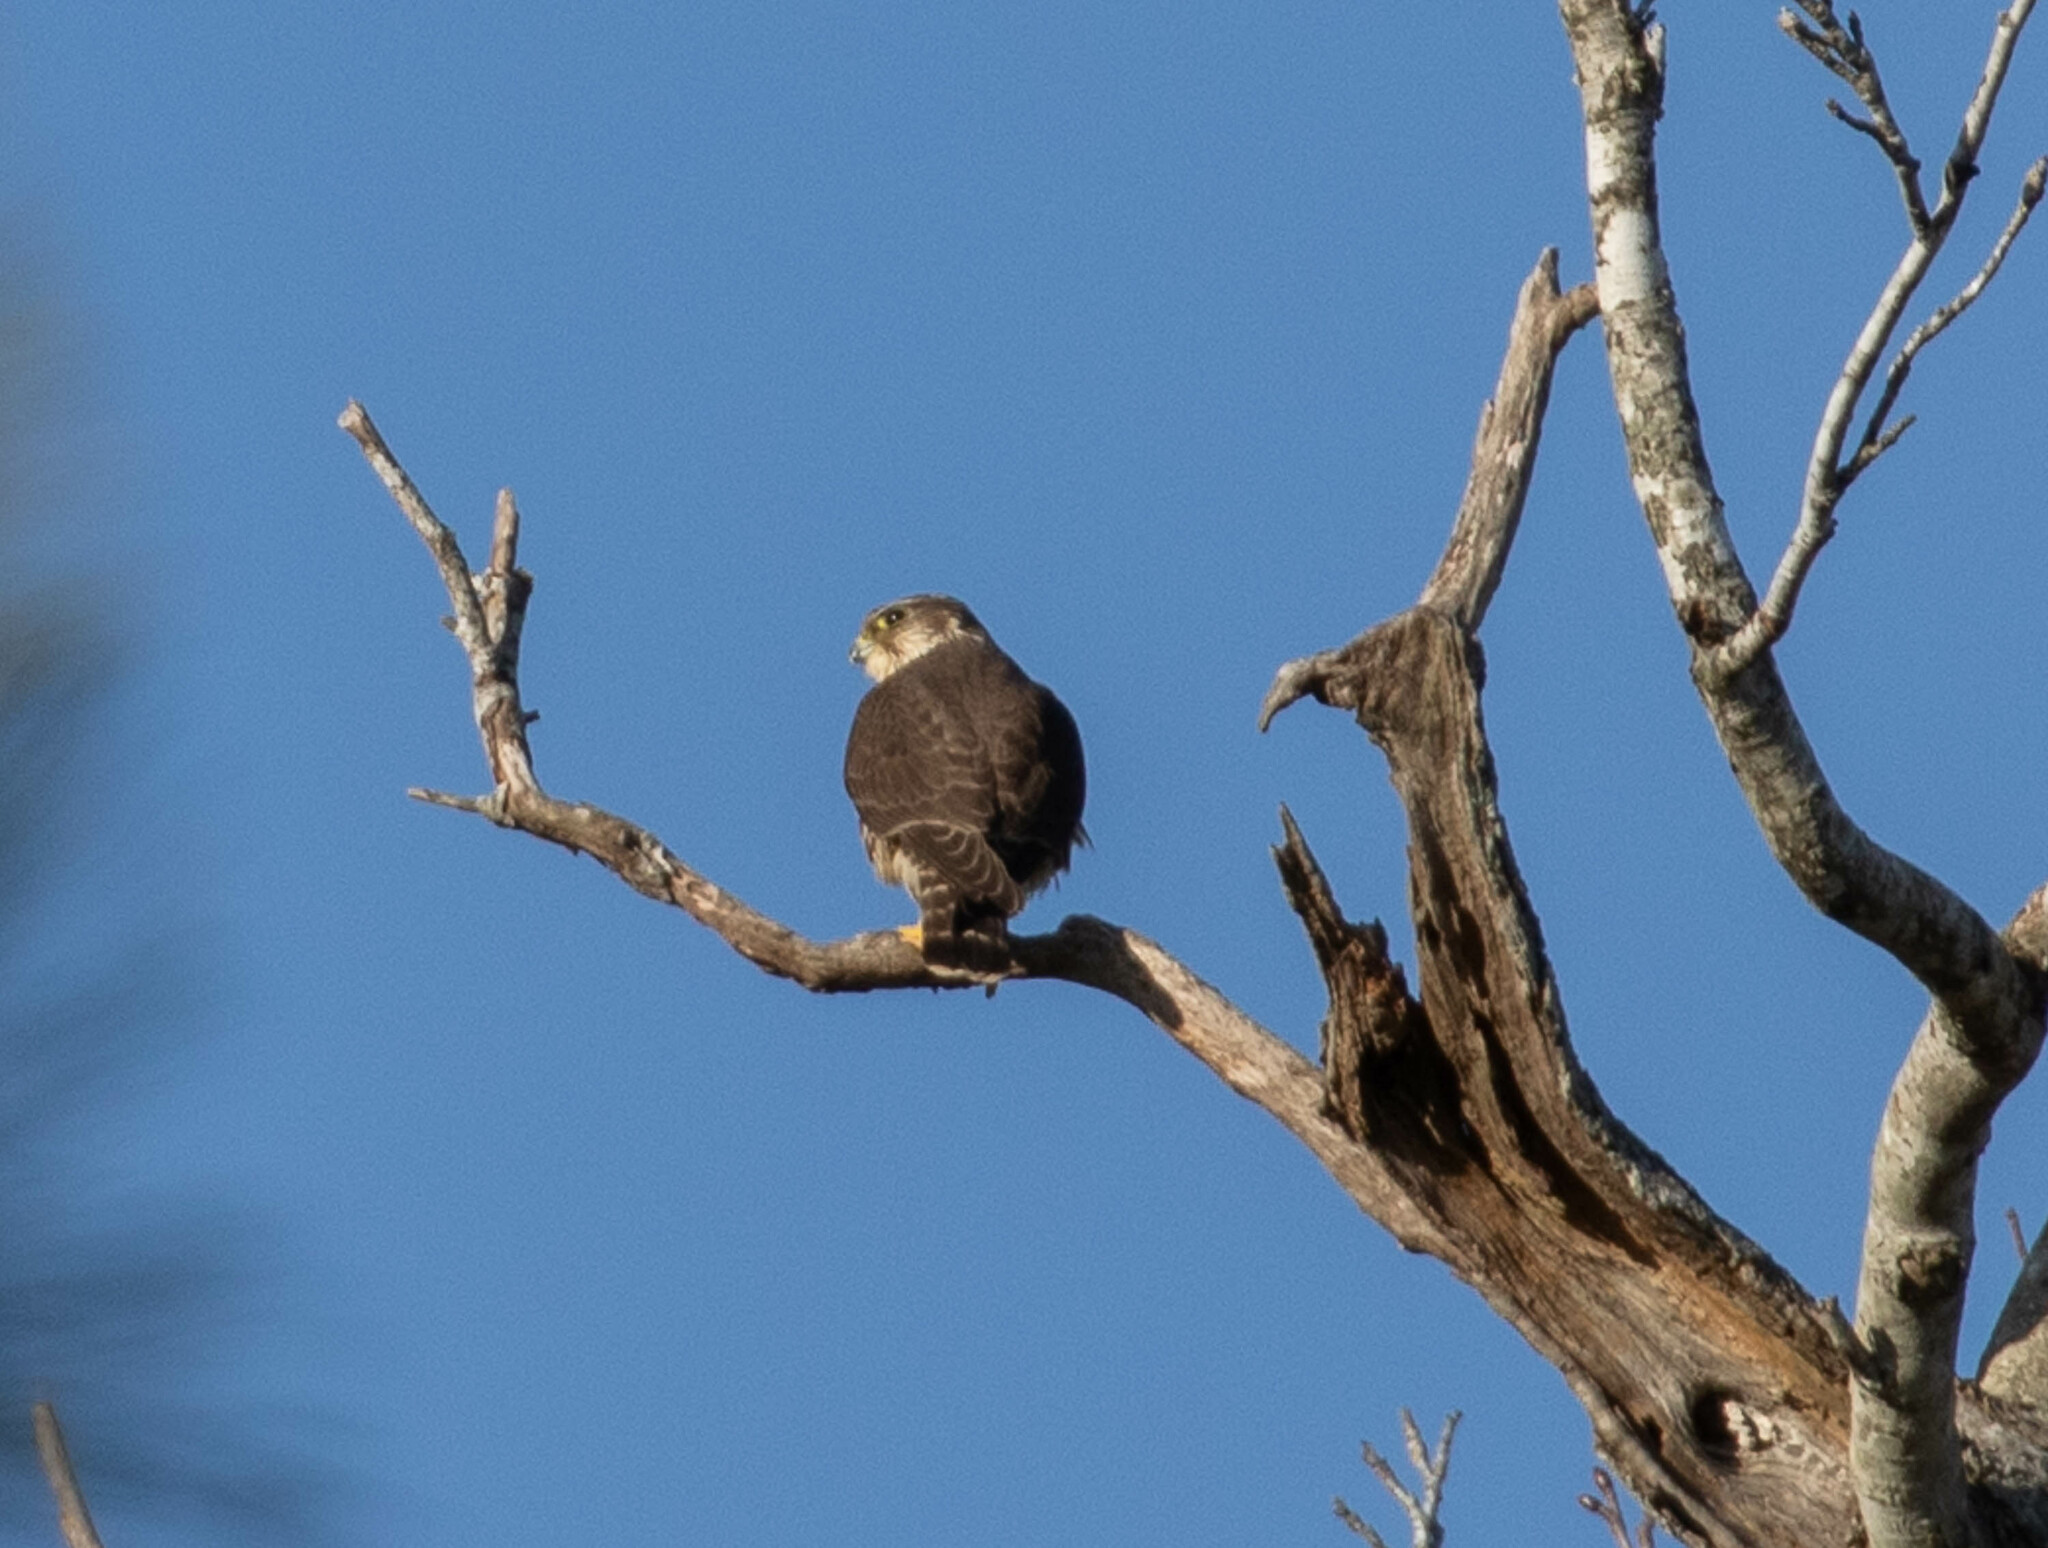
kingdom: Animalia
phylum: Chordata
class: Aves
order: Falconiformes
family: Falconidae
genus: Falco
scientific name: Falco columbarius
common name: Merlin
